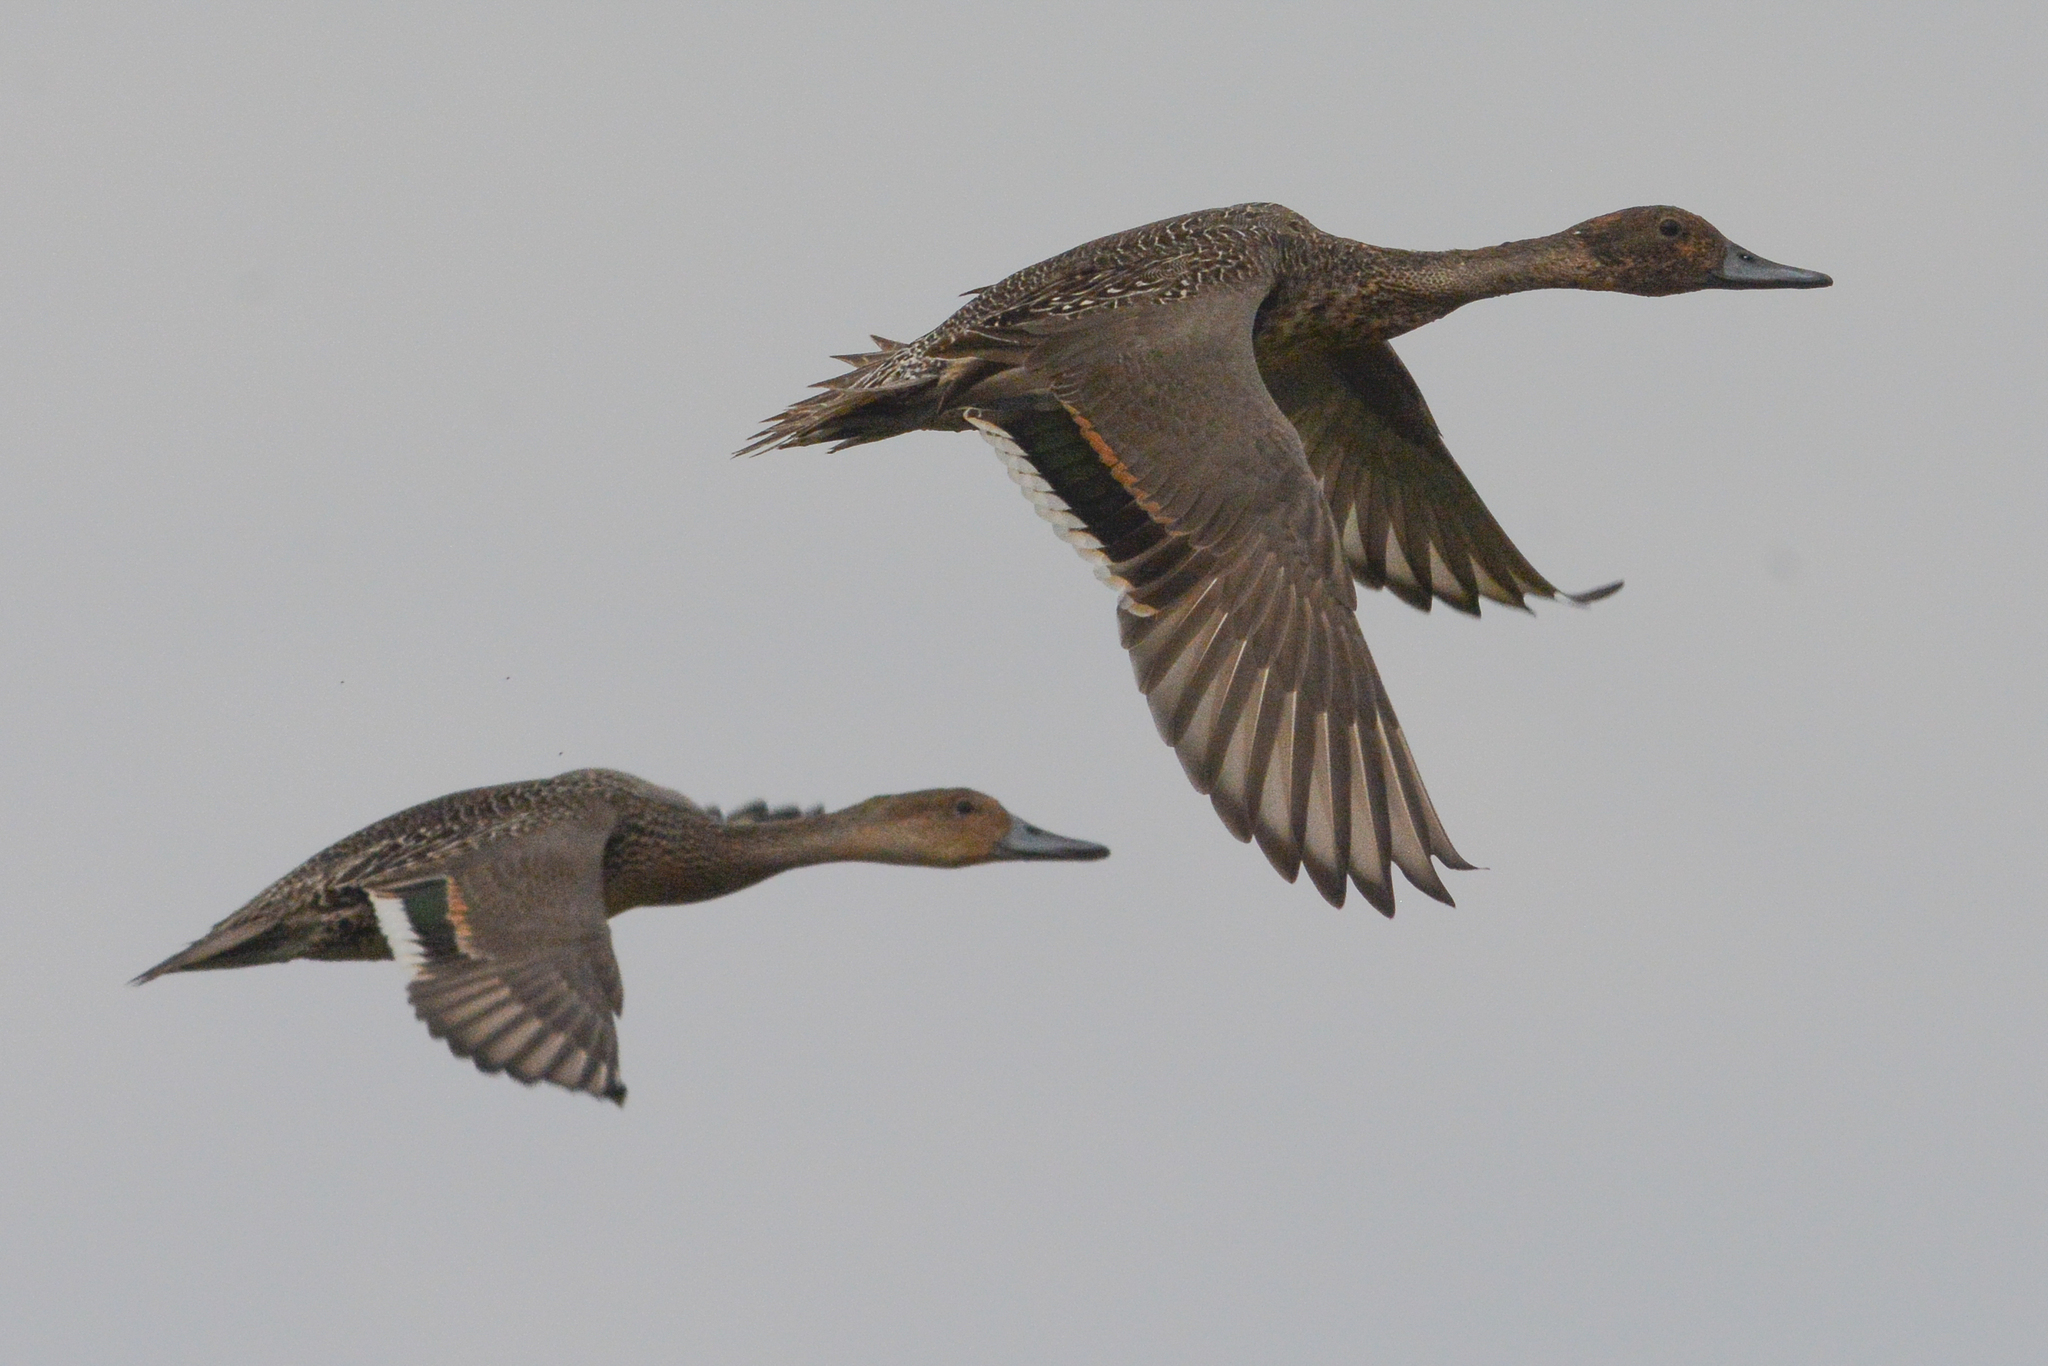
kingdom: Animalia
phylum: Chordata
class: Aves
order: Anseriformes
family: Anatidae
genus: Anas
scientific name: Anas acuta
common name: Northern pintail
